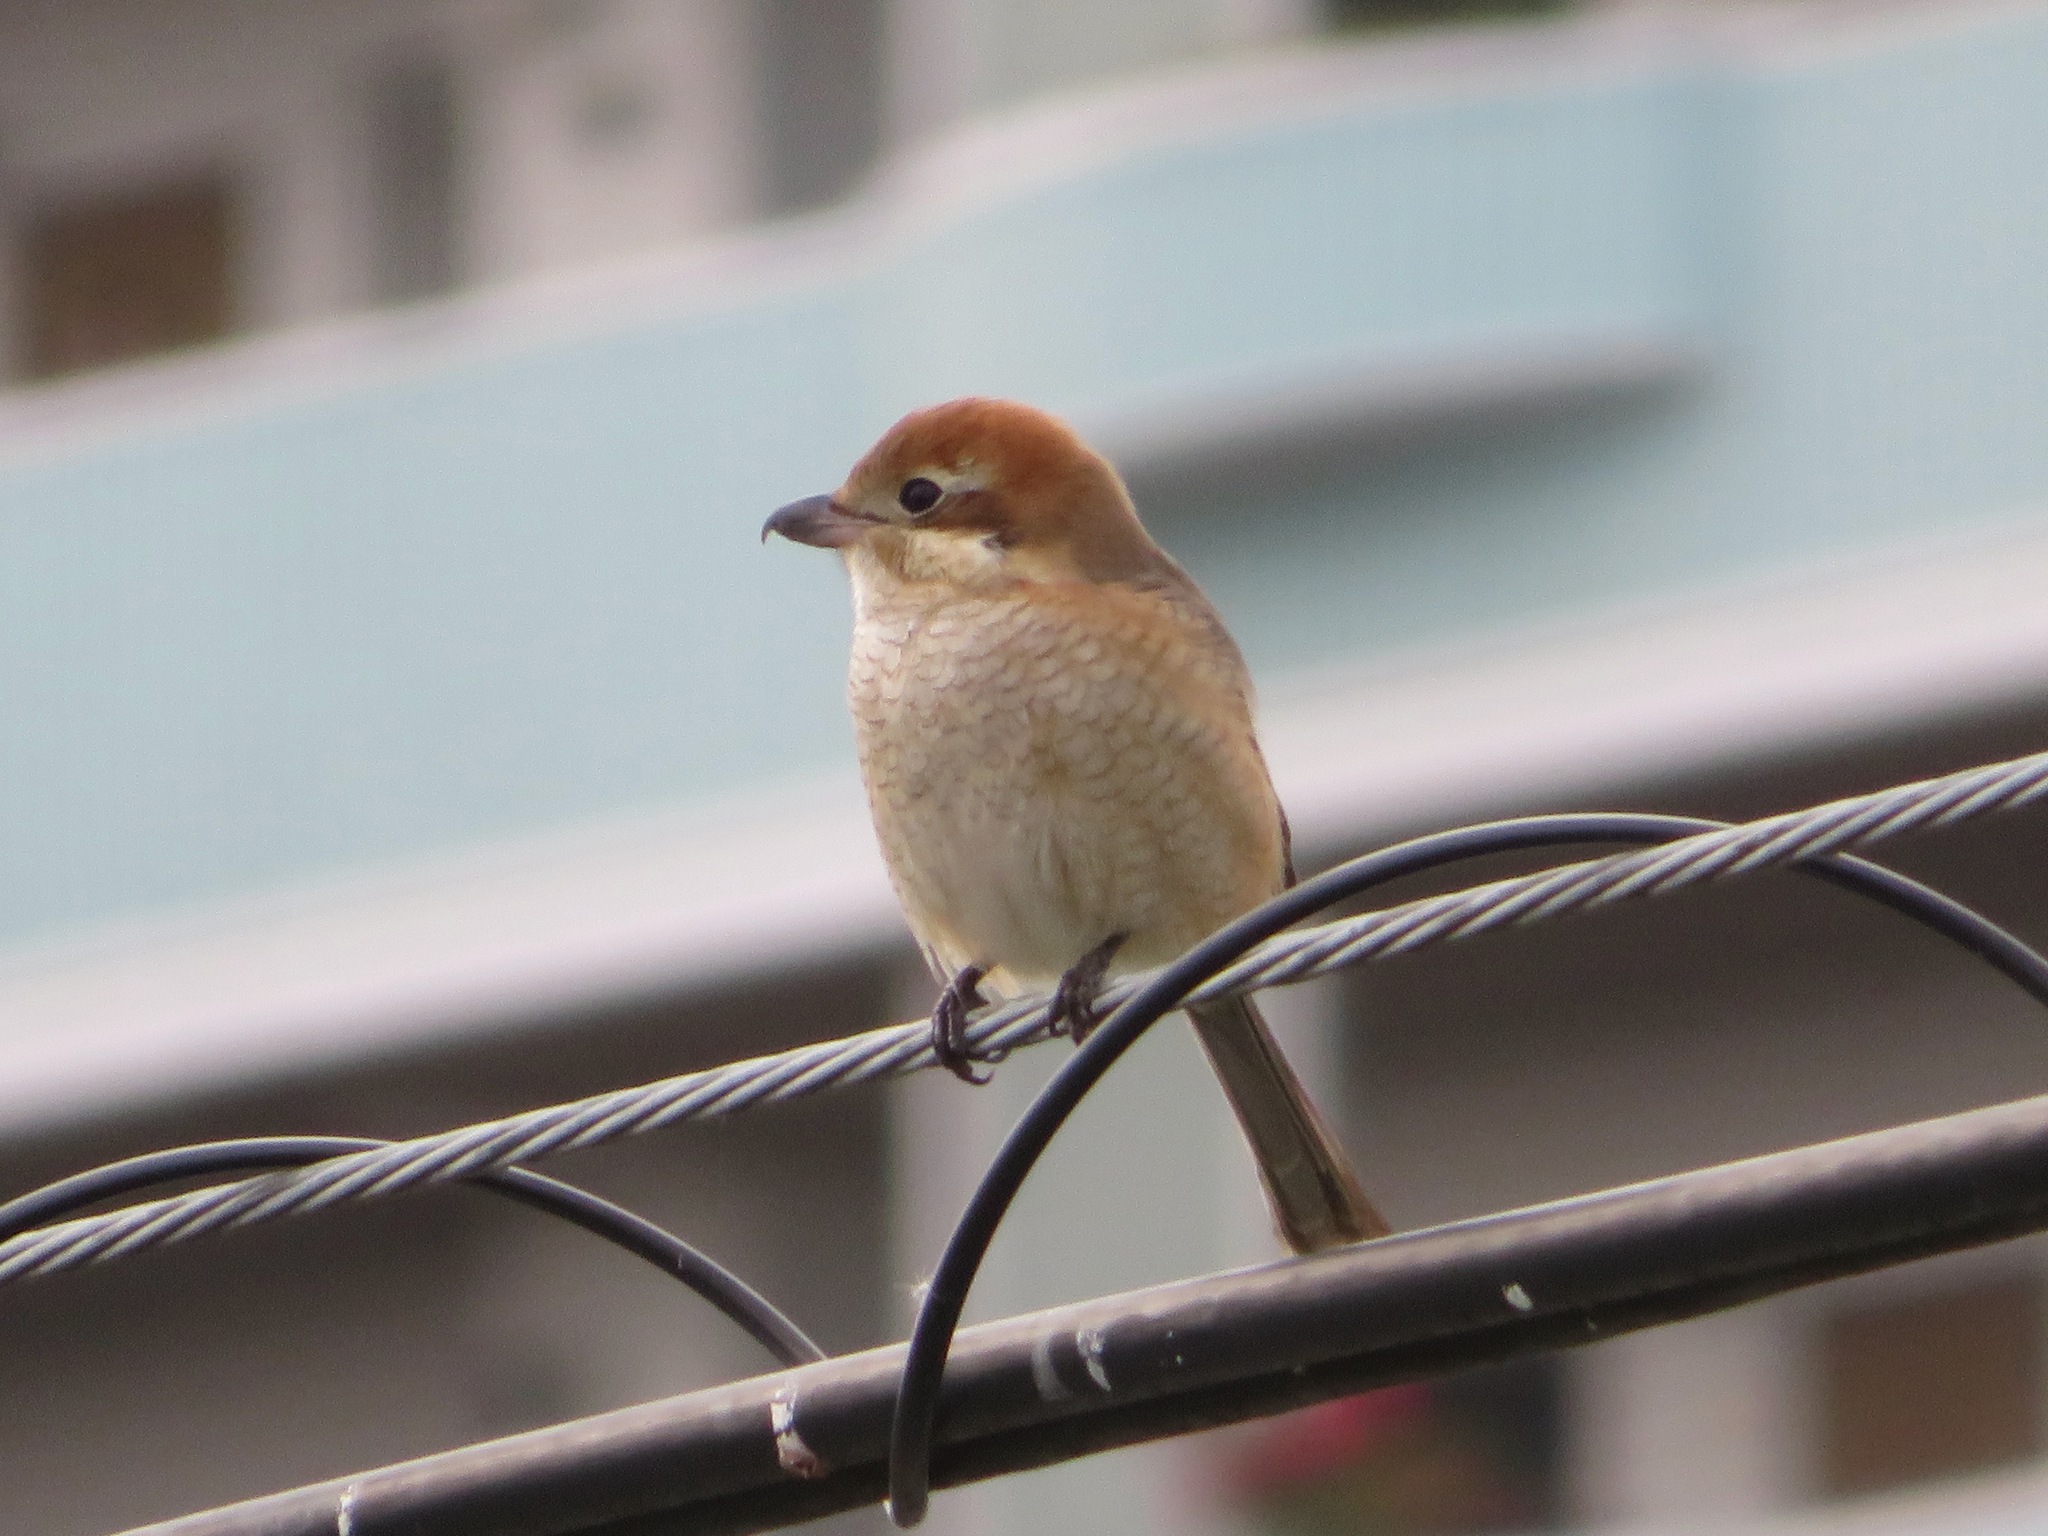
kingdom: Animalia
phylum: Chordata
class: Aves
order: Passeriformes
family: Laniidae
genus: Lanius
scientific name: Lanius bucephalus
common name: Bull-headed shrike
